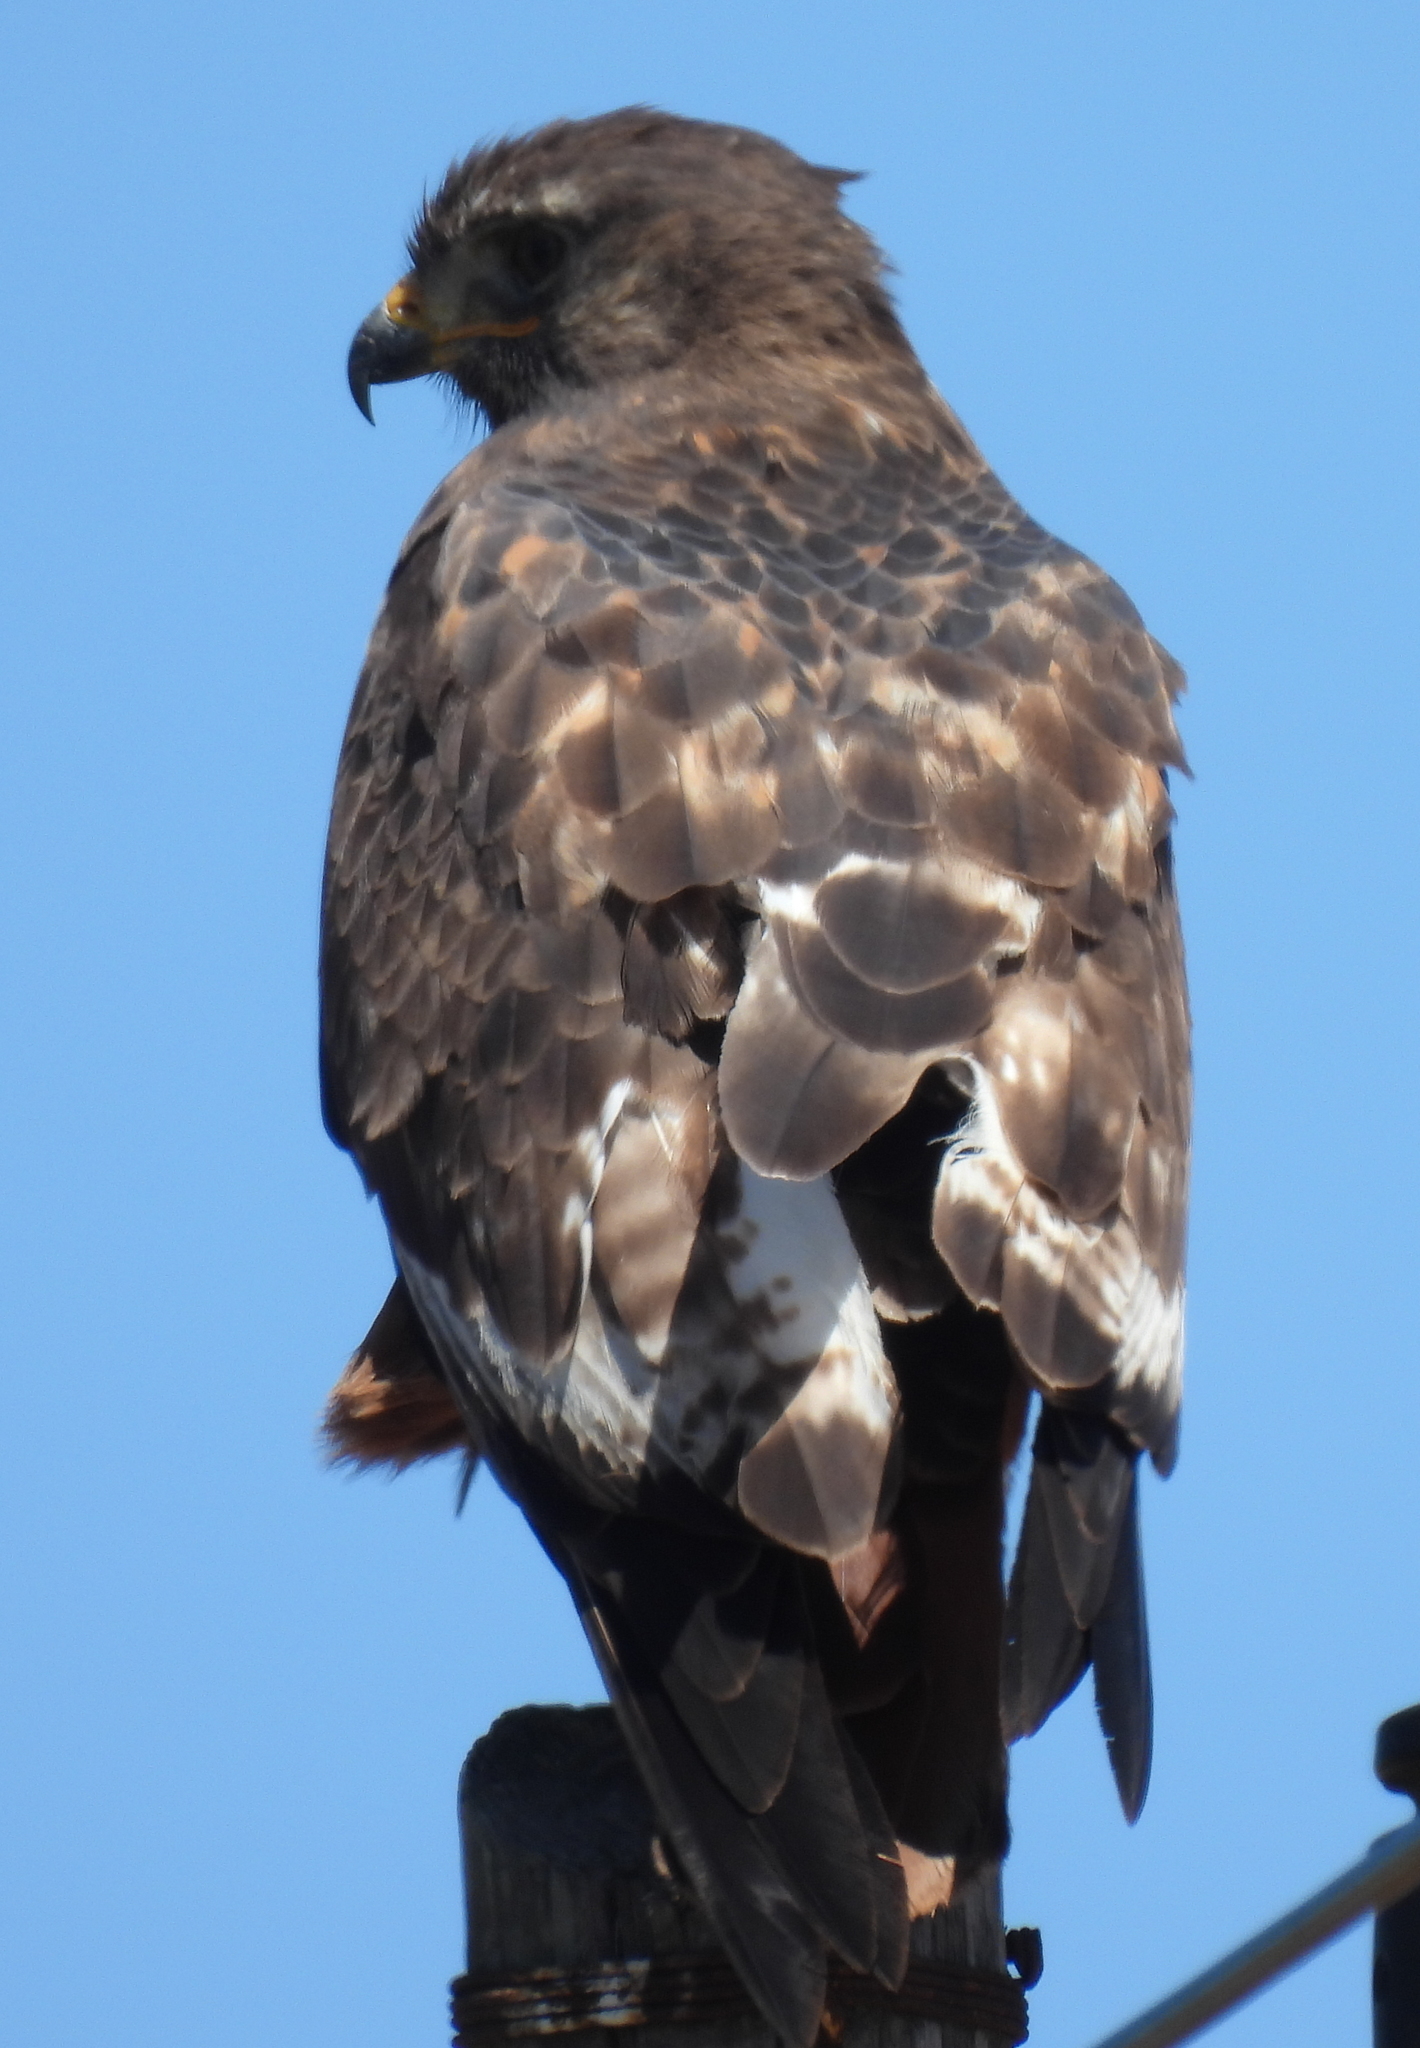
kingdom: Animalia
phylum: Chordata
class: Aves
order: Accipitriformes
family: Accipitridae
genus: Buteo
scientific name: Buteo rufofuscus
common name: Jackal buzzard
